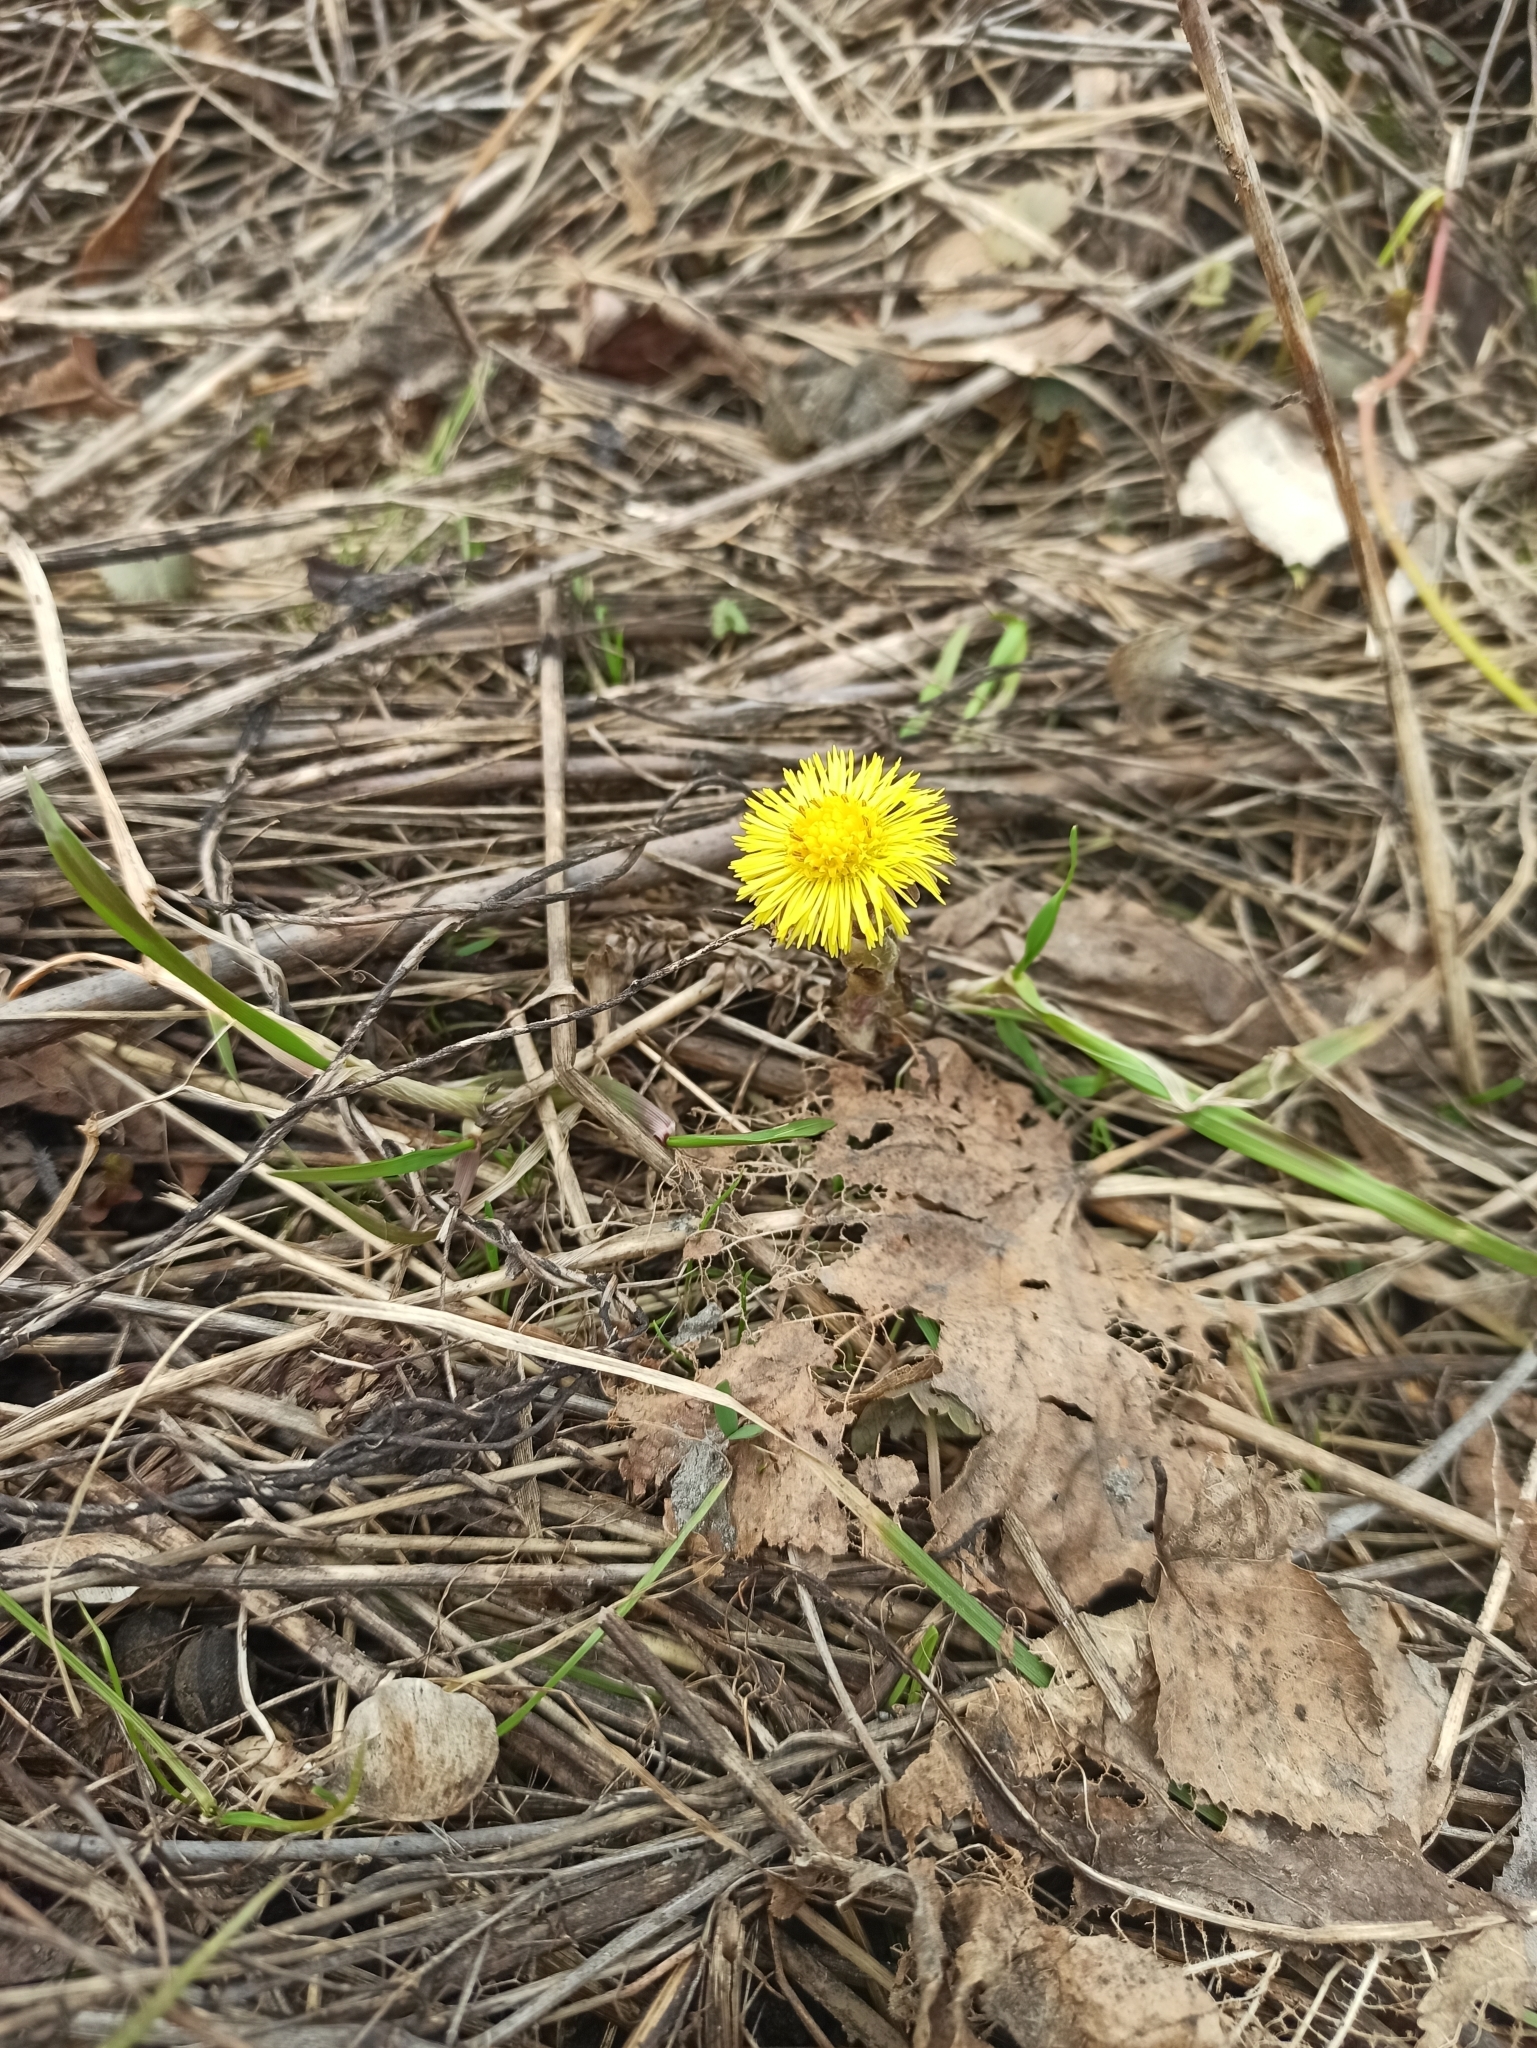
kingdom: Plantae
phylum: Tracheophyta
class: Magnoliopsida
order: Asterales
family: Asteraceae
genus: Tussilago
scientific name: Tussilago farfara
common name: Coltsfoot
